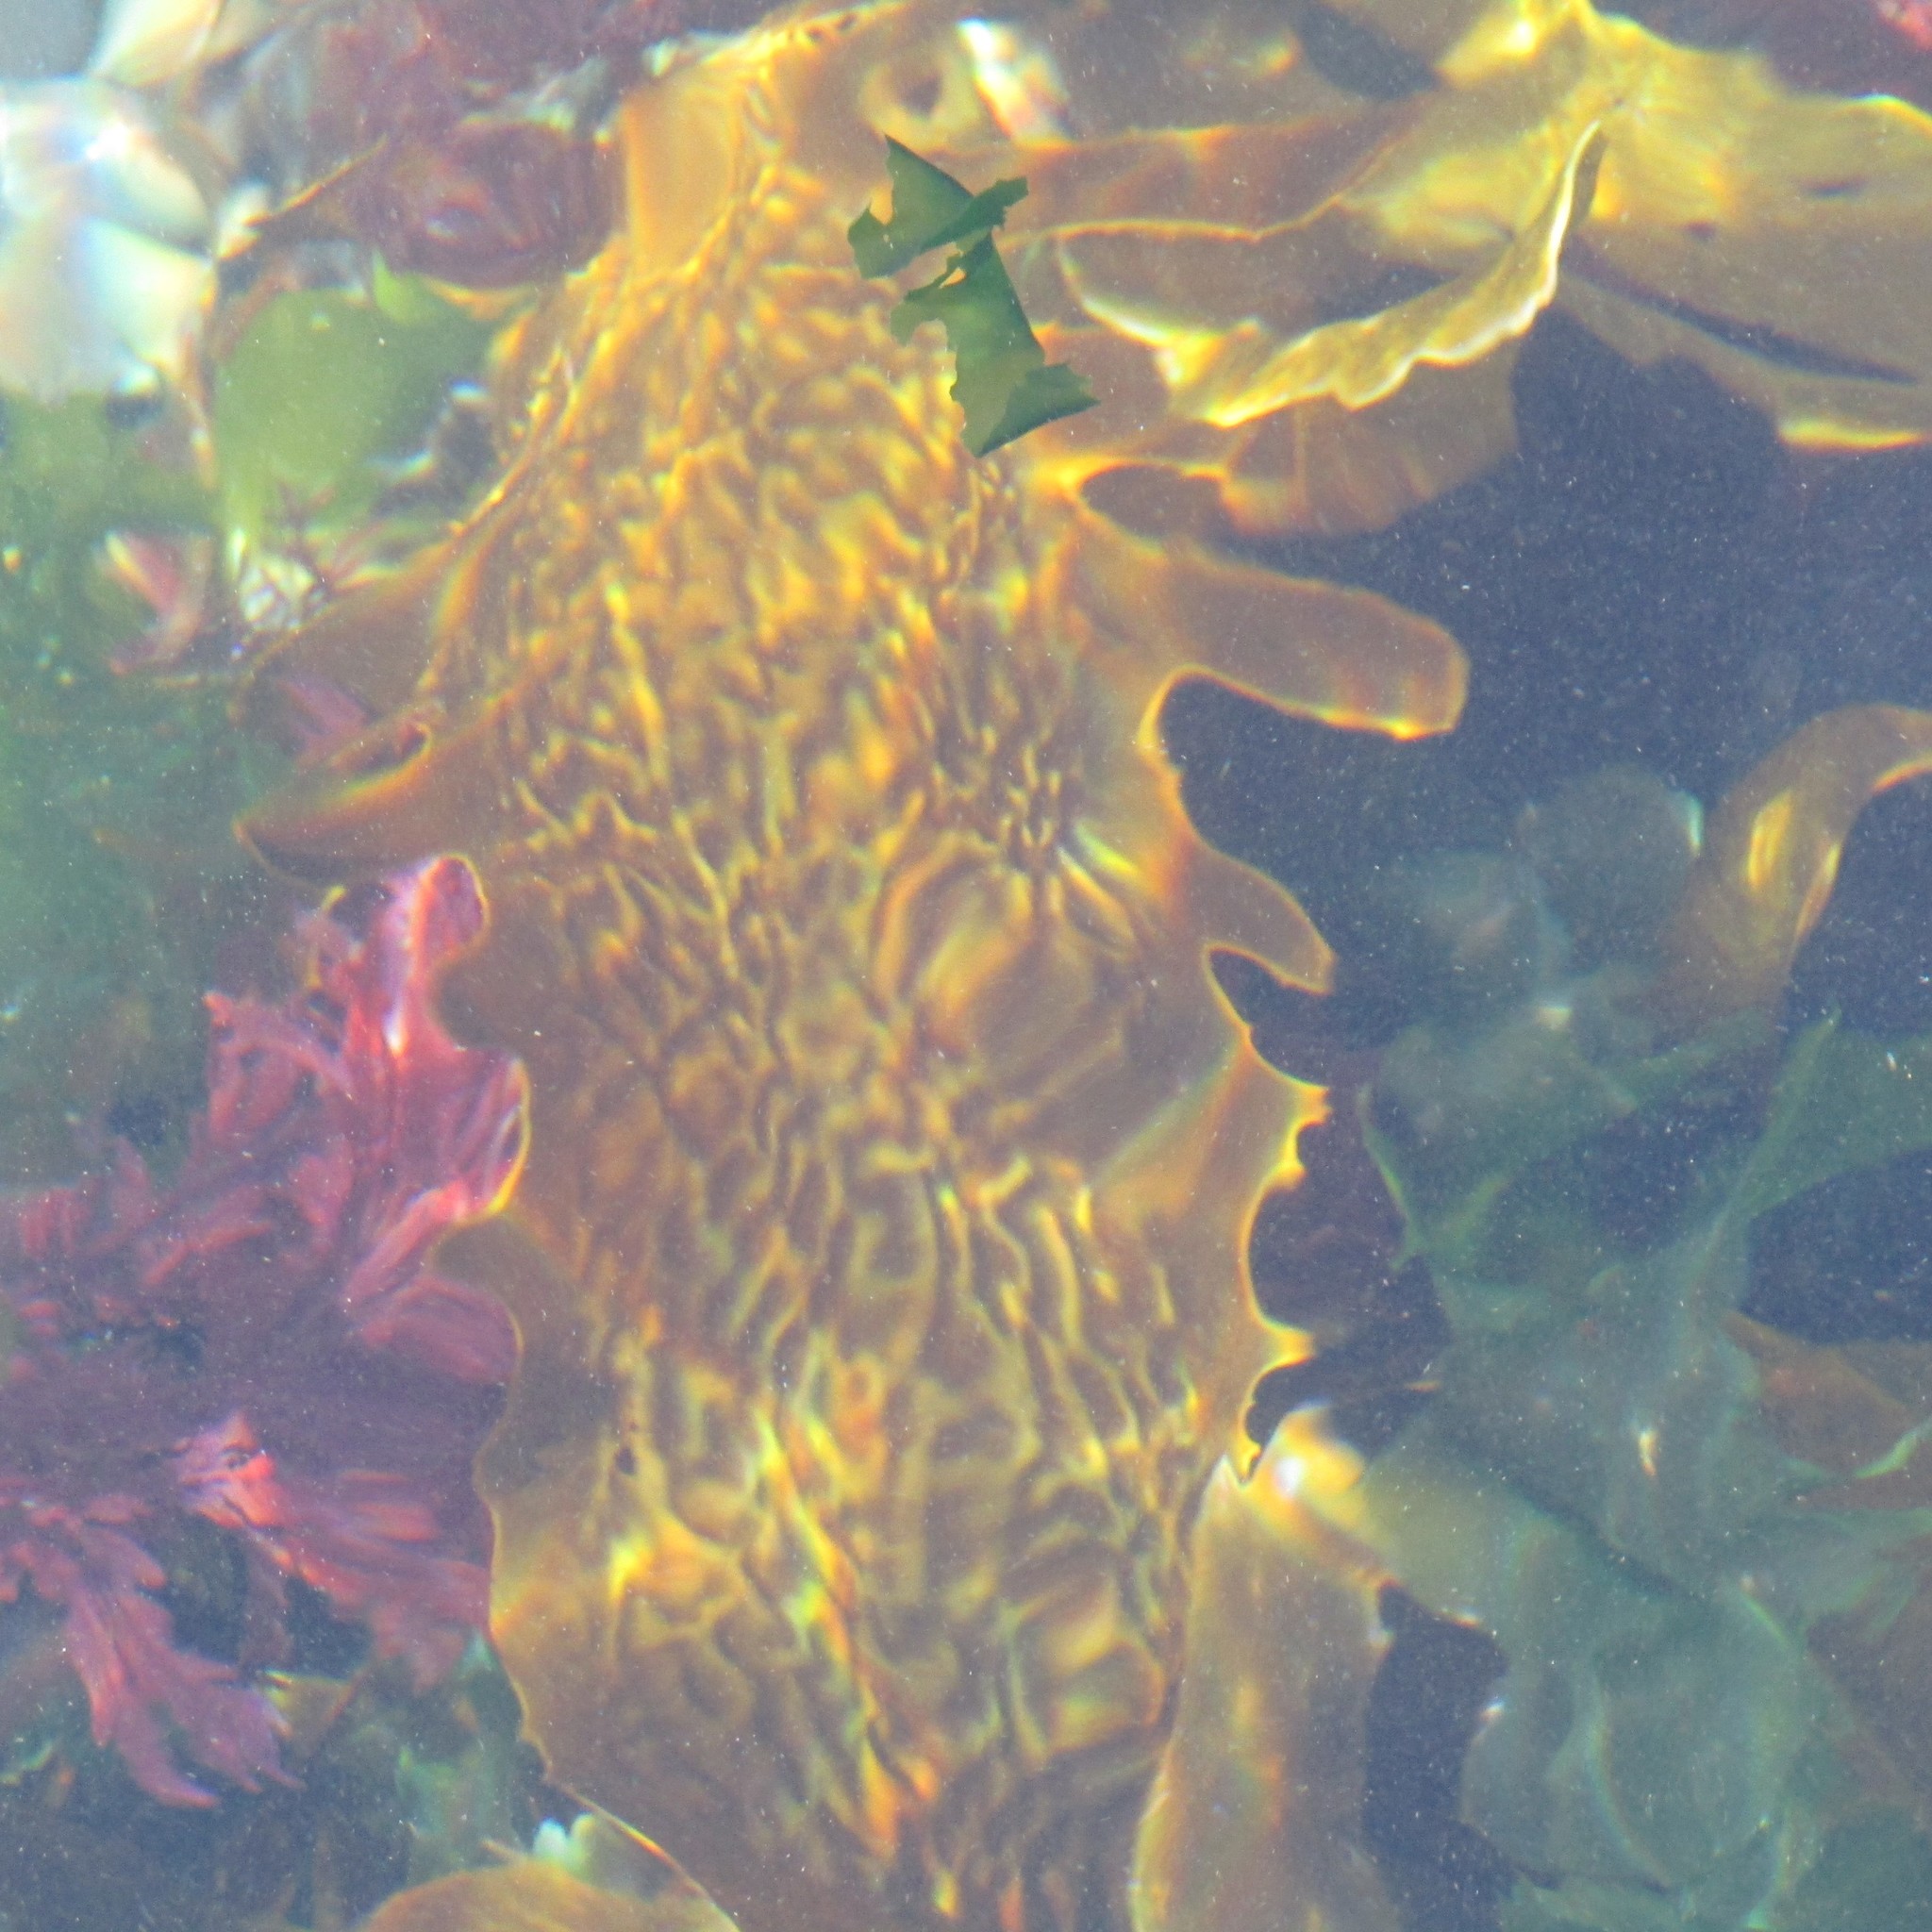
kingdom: Chromista
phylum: Ochrophyta
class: Phaeophyceae
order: Laminariales
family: Lessoniaceae
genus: Ecklonia
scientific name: Ecklonia radiata
